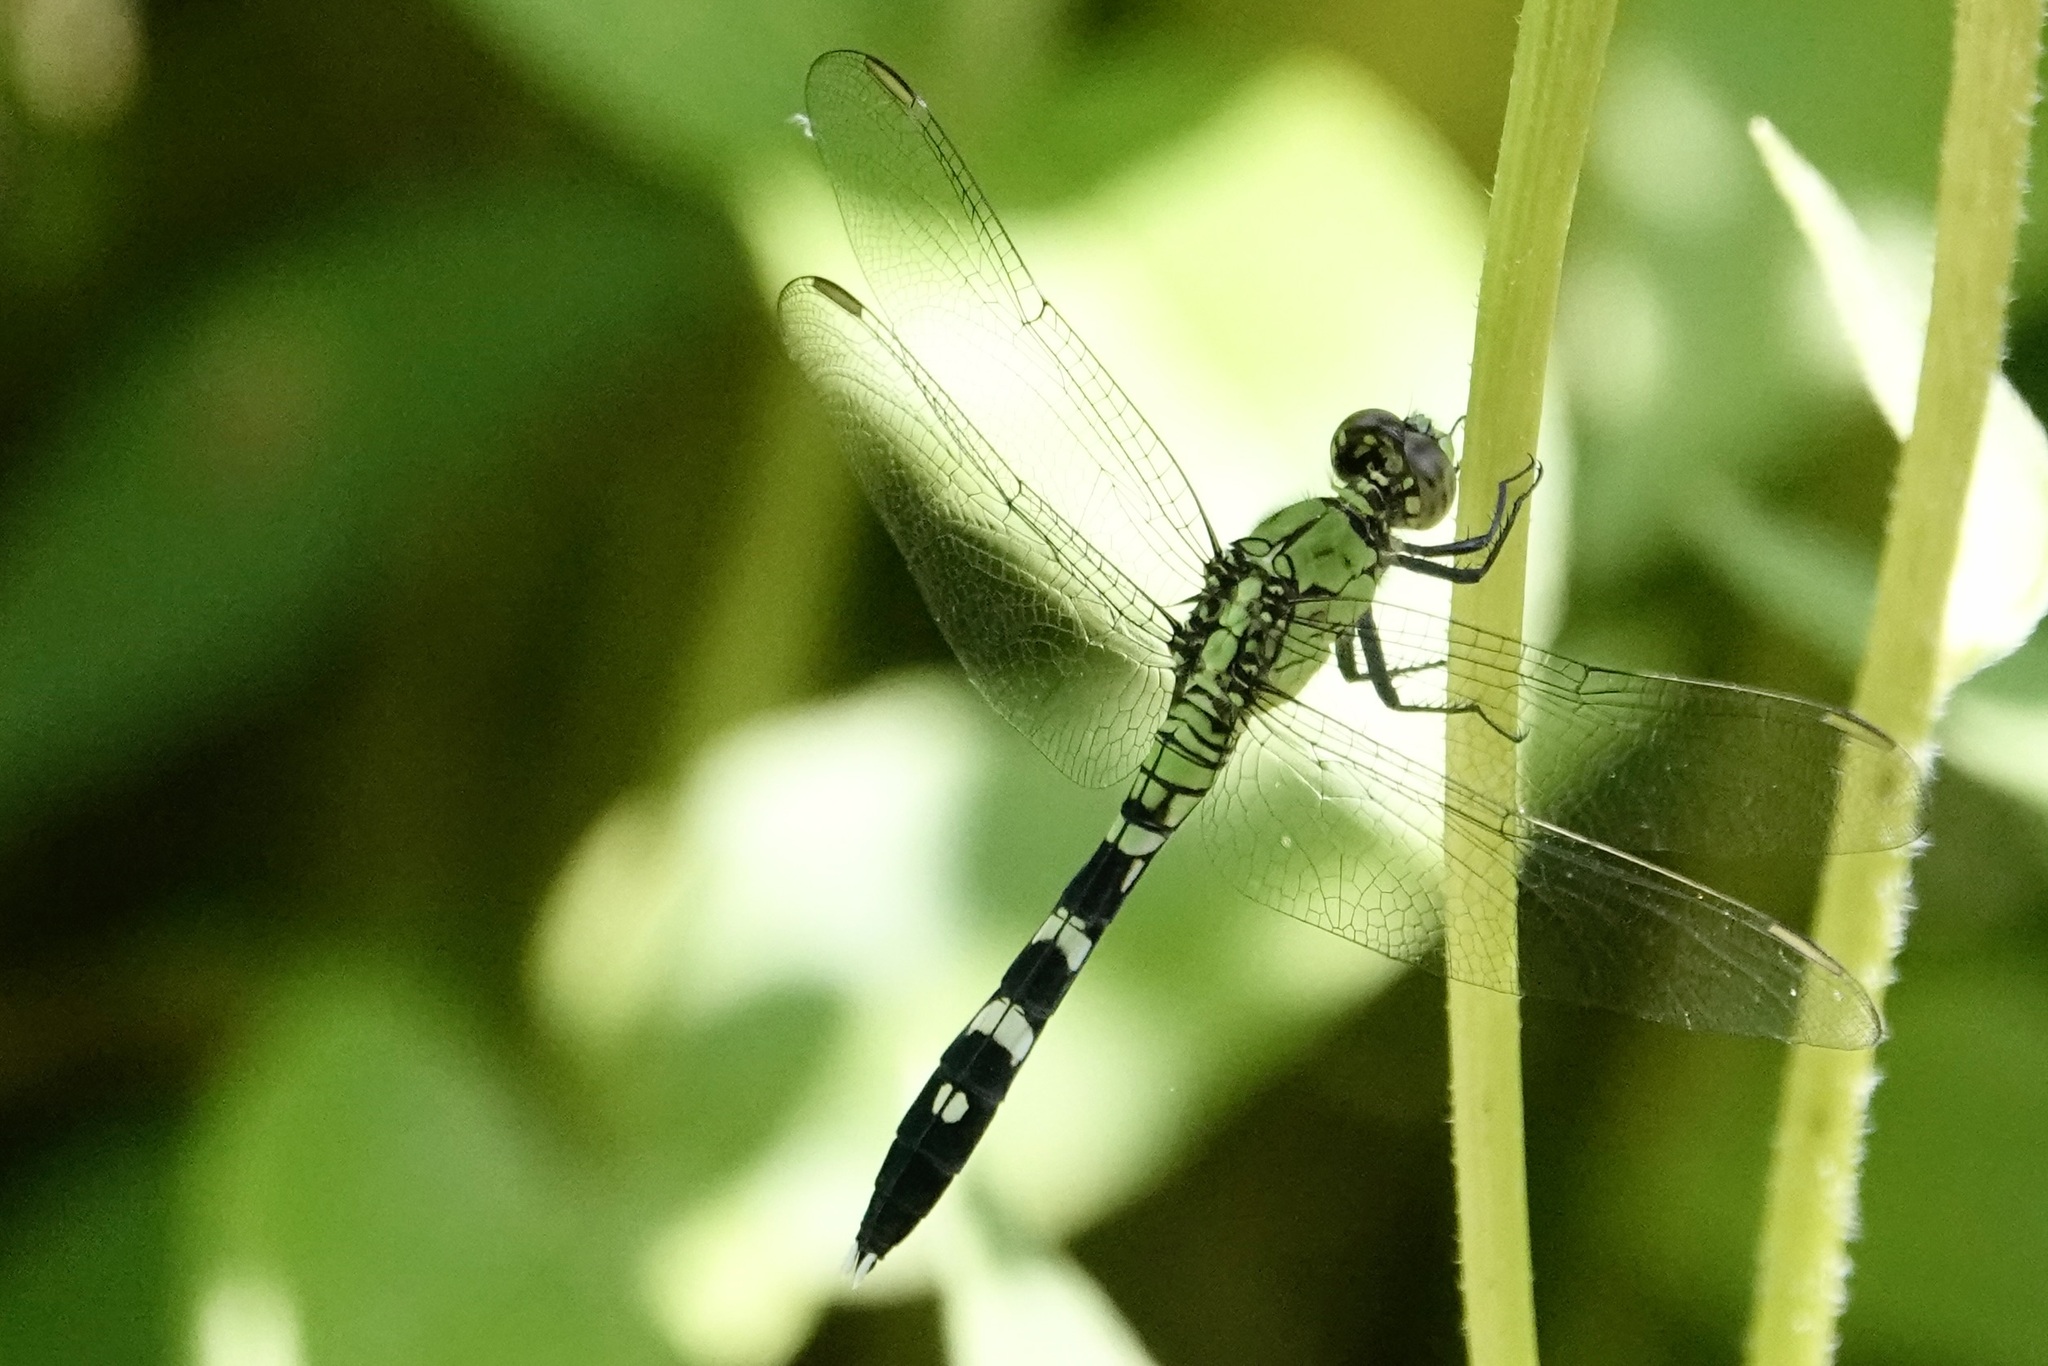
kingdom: Animalia
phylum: Arthropoda
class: Insecta
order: Odonata
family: Libellulidae
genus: Erythemis
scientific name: Erythemis simplicicollis
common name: Eastern pondhawk
